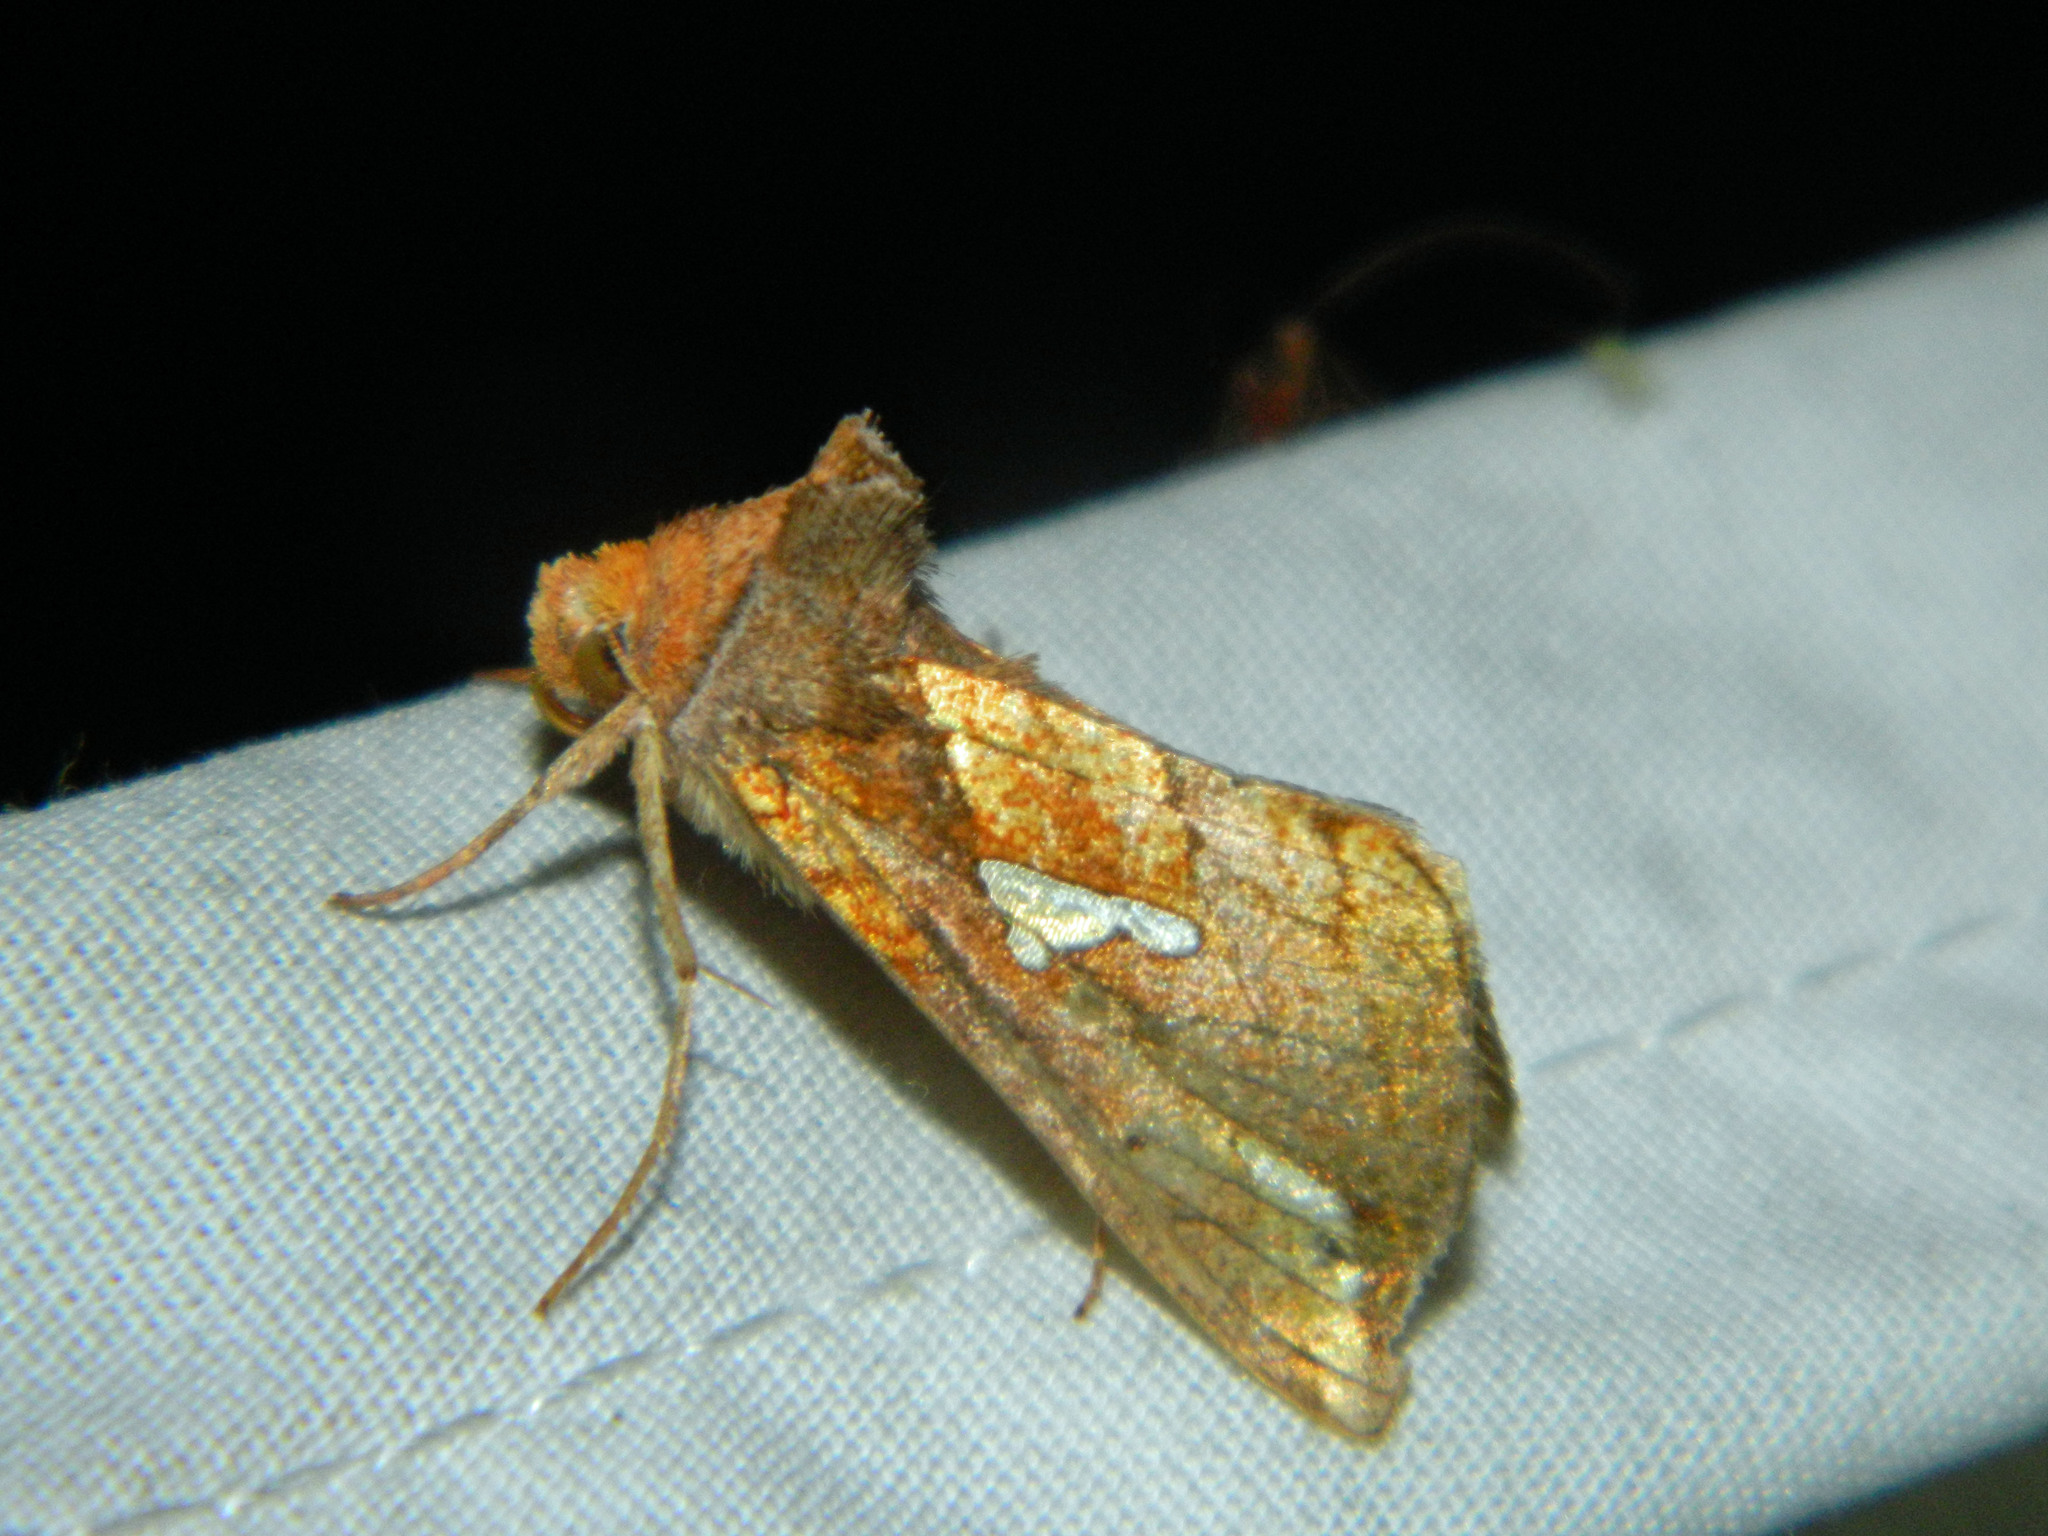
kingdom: Animalia
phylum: Arthropoda
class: Insecta
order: Lepidoptera
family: Noctuidae
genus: Plusia
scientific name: Plusia putnami
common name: Lempke's gold spot
